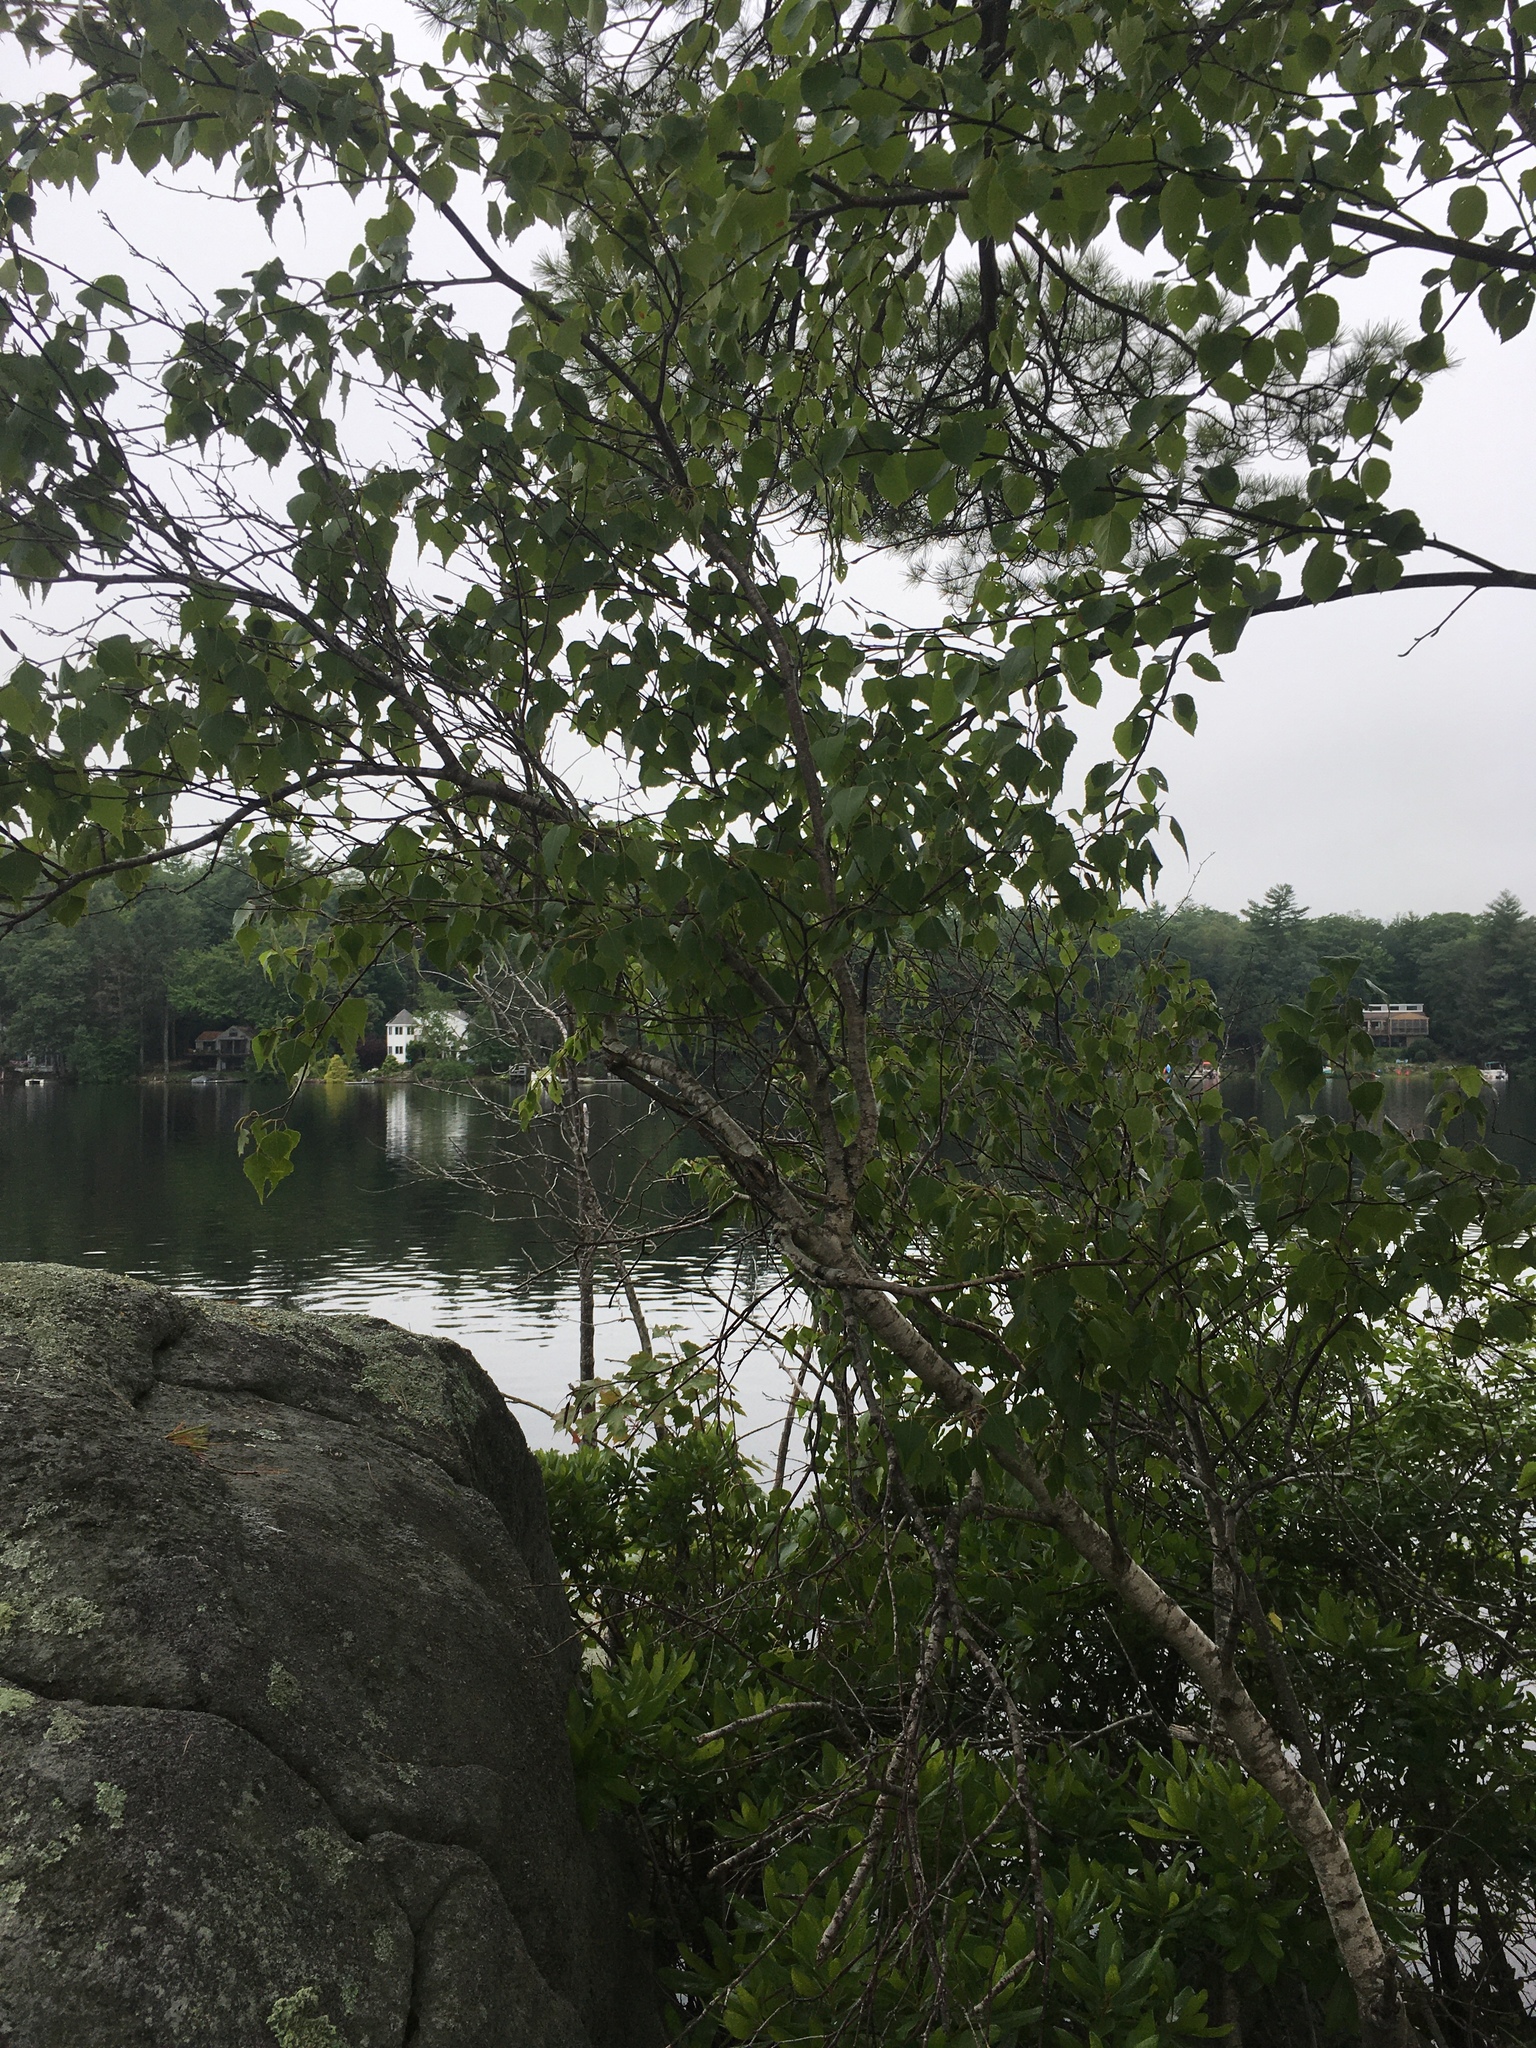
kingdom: Plantae
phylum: Tracheophyta
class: Magnoliopsida
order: Fagales
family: Betulaceae
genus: Betula
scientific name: Betula populifolia
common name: Fire birch
